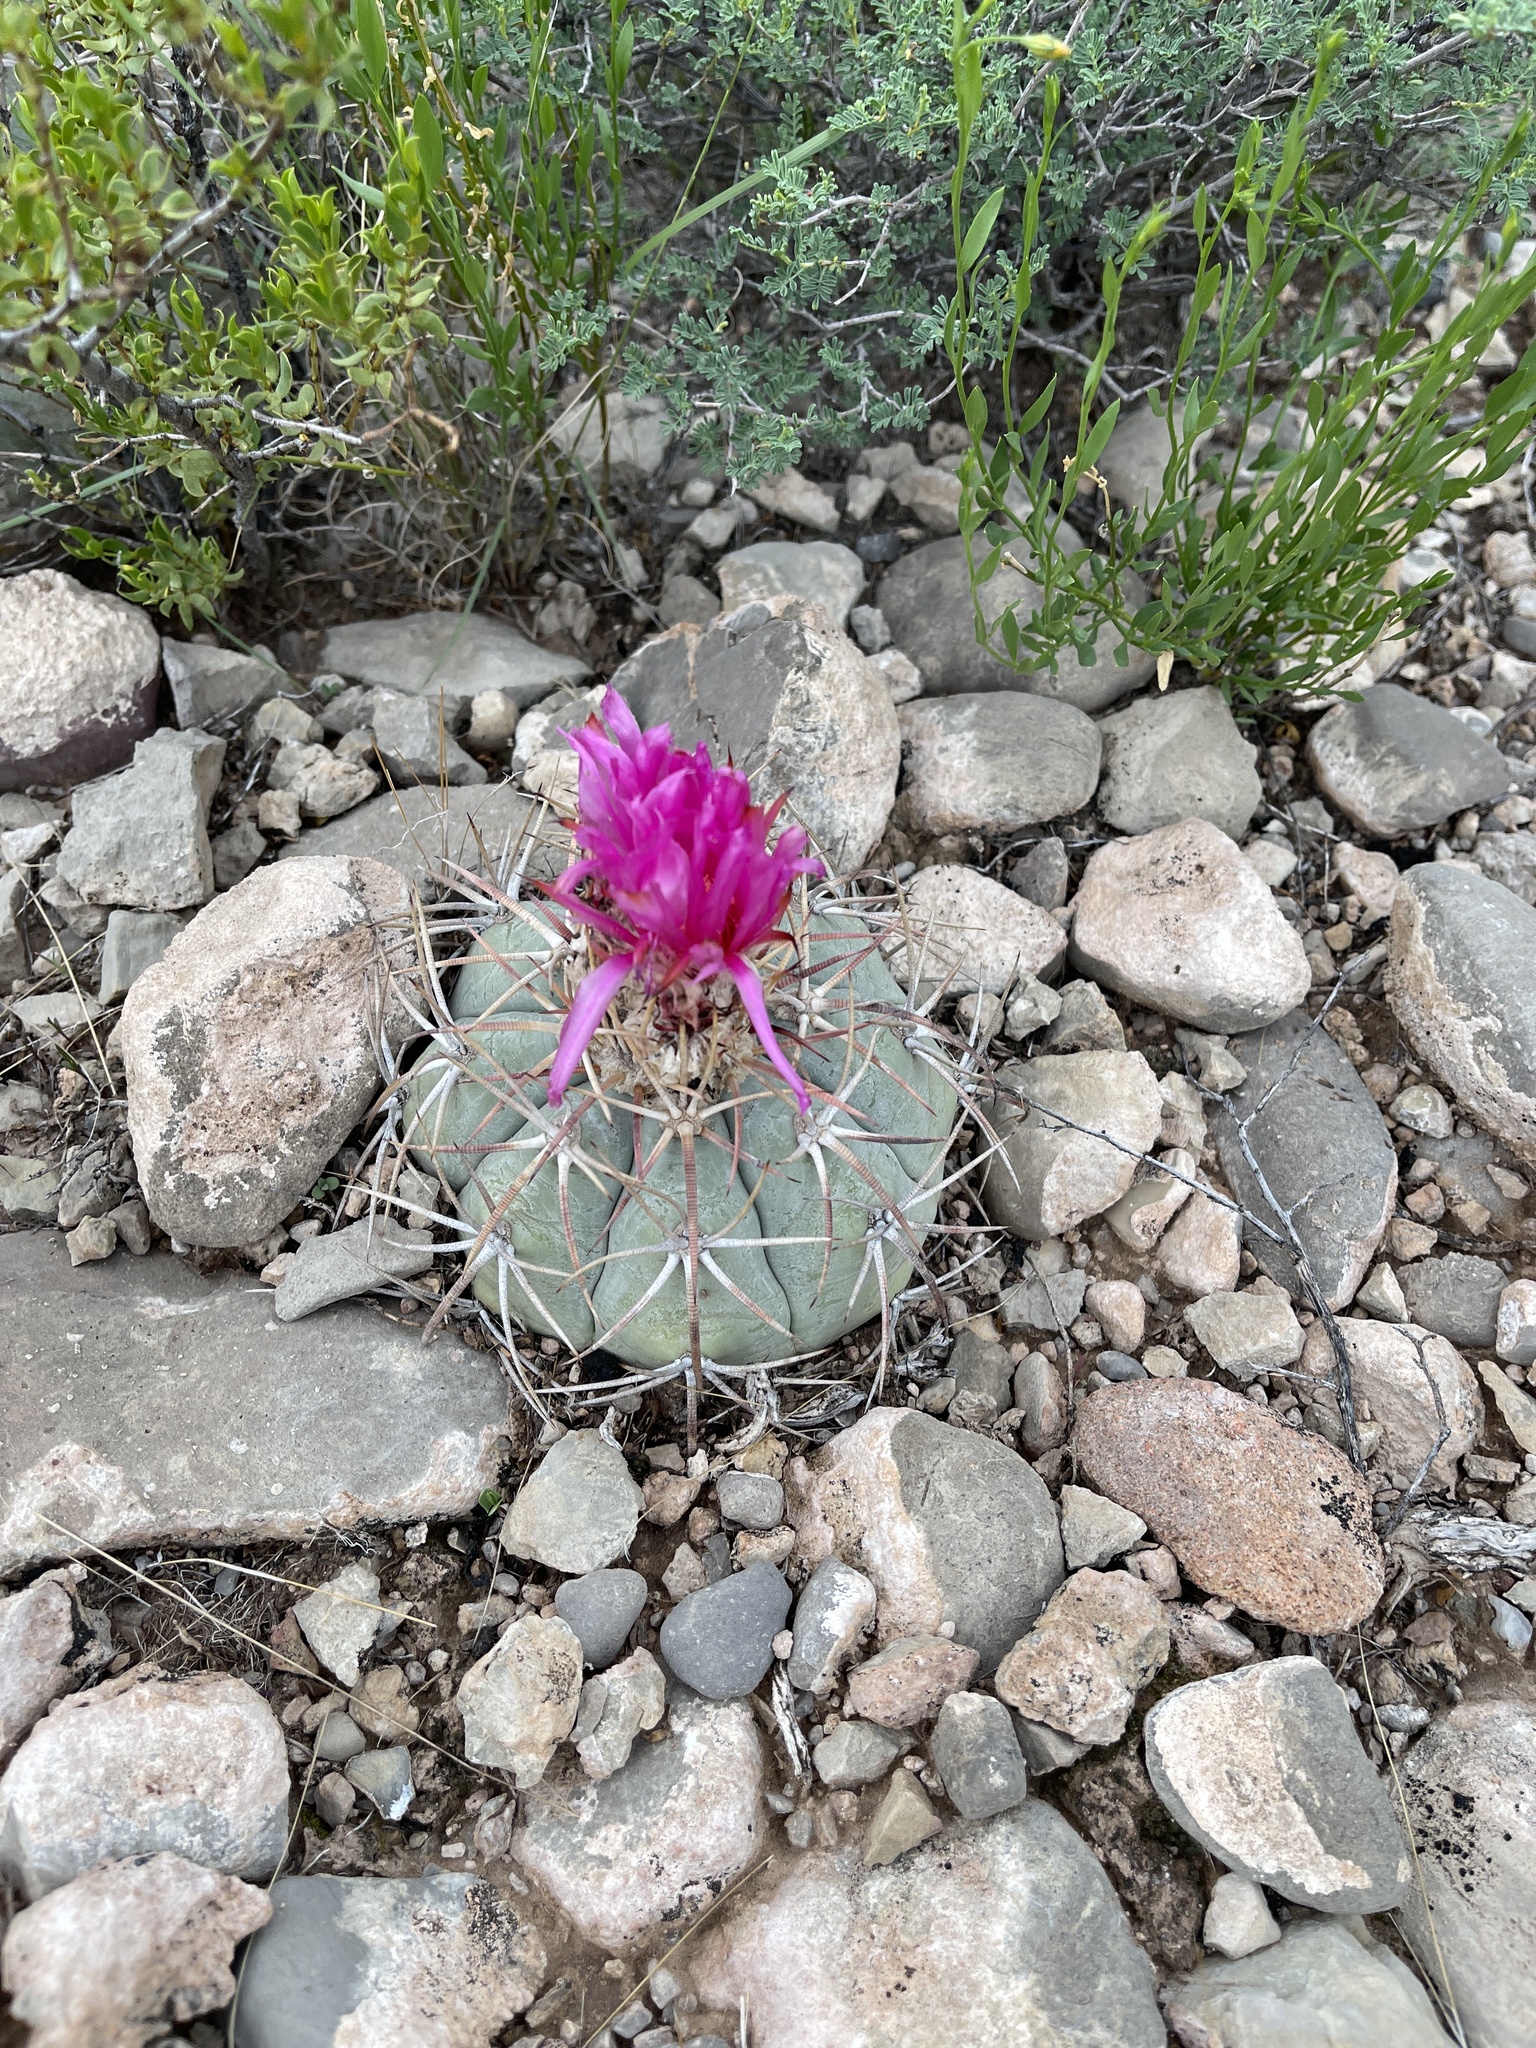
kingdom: Plantae
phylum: Tracheophyta
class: Magnoliopsida
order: Caryophyllales
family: Cactaceae
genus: Echinocactus
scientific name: Echinocactus horizonthalonius
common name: Devilshead
